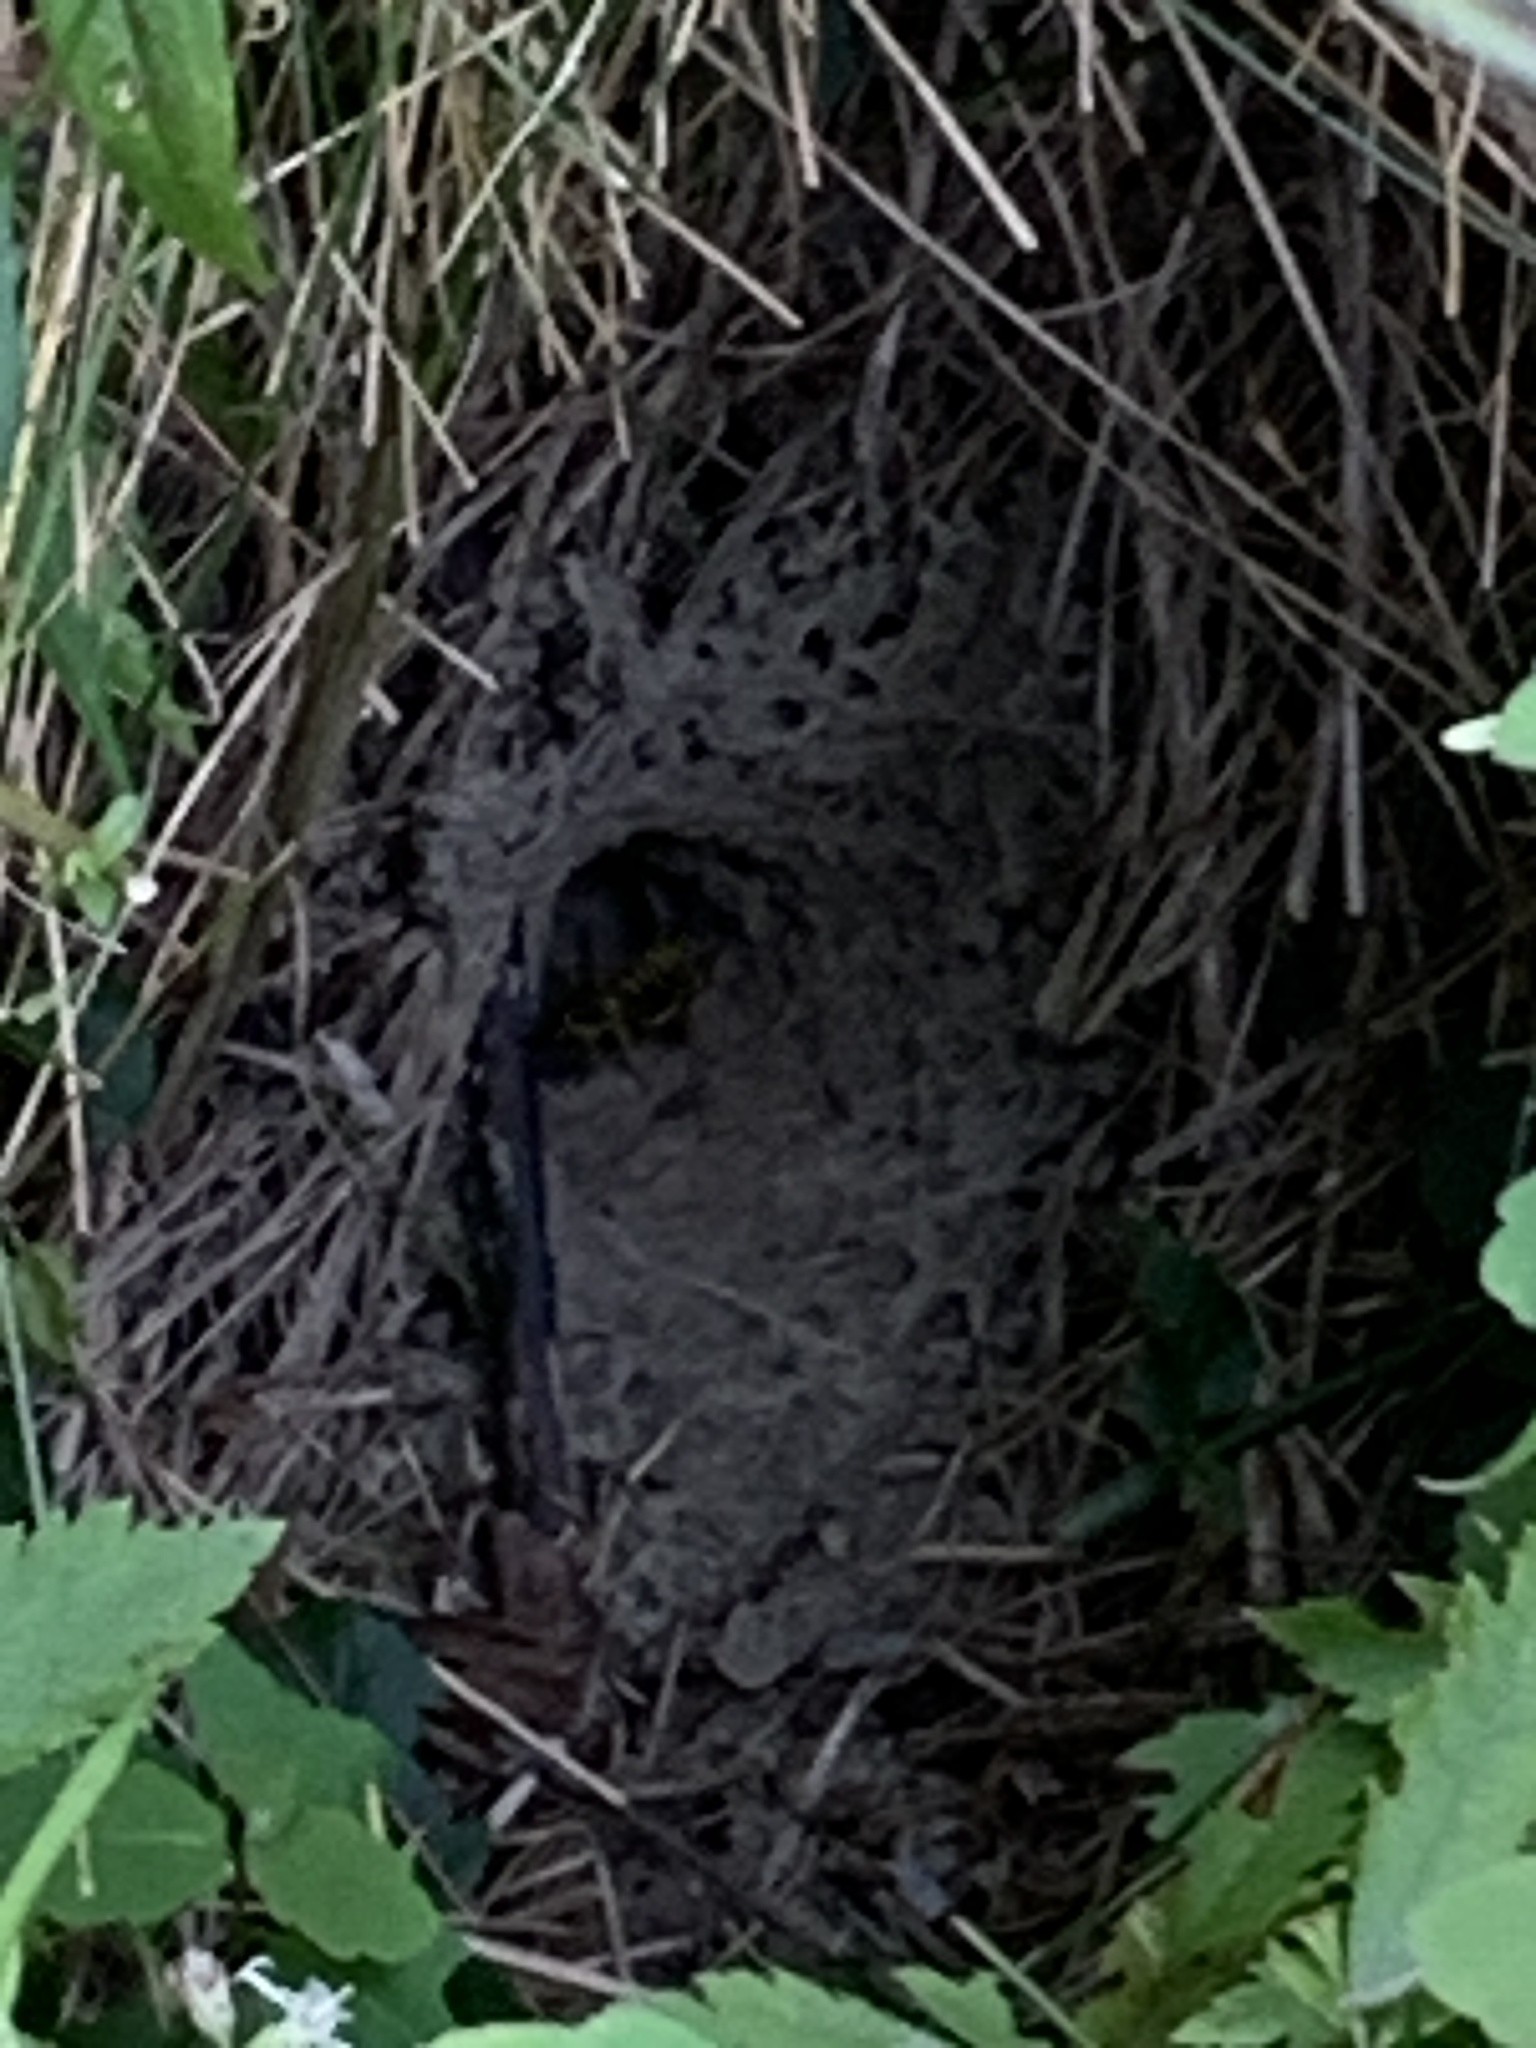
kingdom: Animalia
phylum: Arthropoda
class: Insecta
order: Hymenoptera
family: Vespidae
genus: Vespula
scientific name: Vespula
